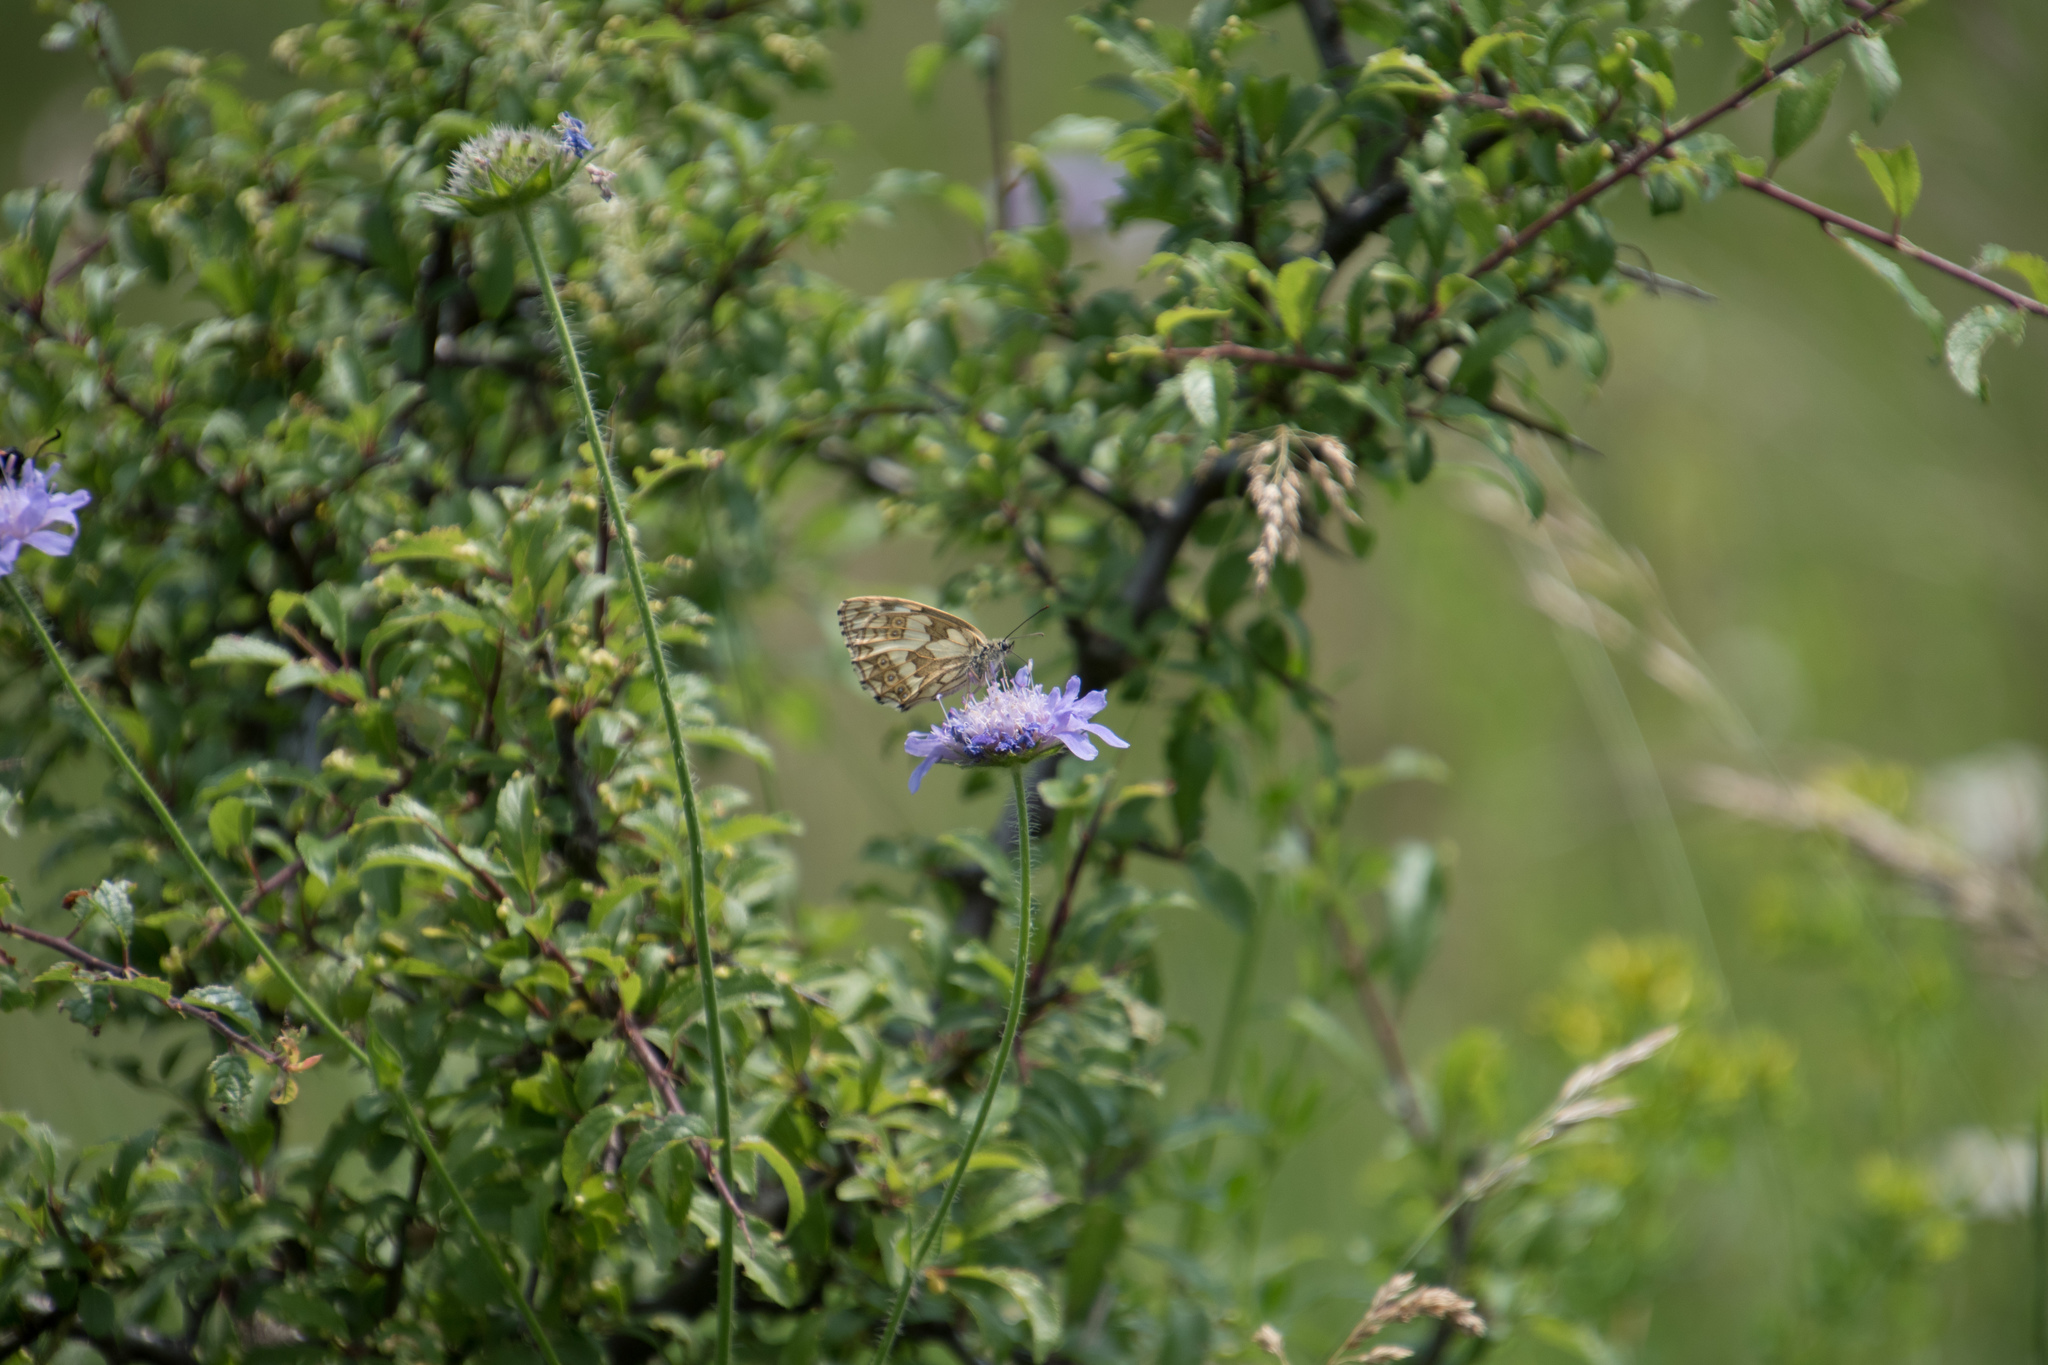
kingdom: Animalia
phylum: Arthropoda
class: Insecta
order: Lepidoptera
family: Nymphalidae
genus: Melanargia
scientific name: Melanargia galathea
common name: Marbled white
